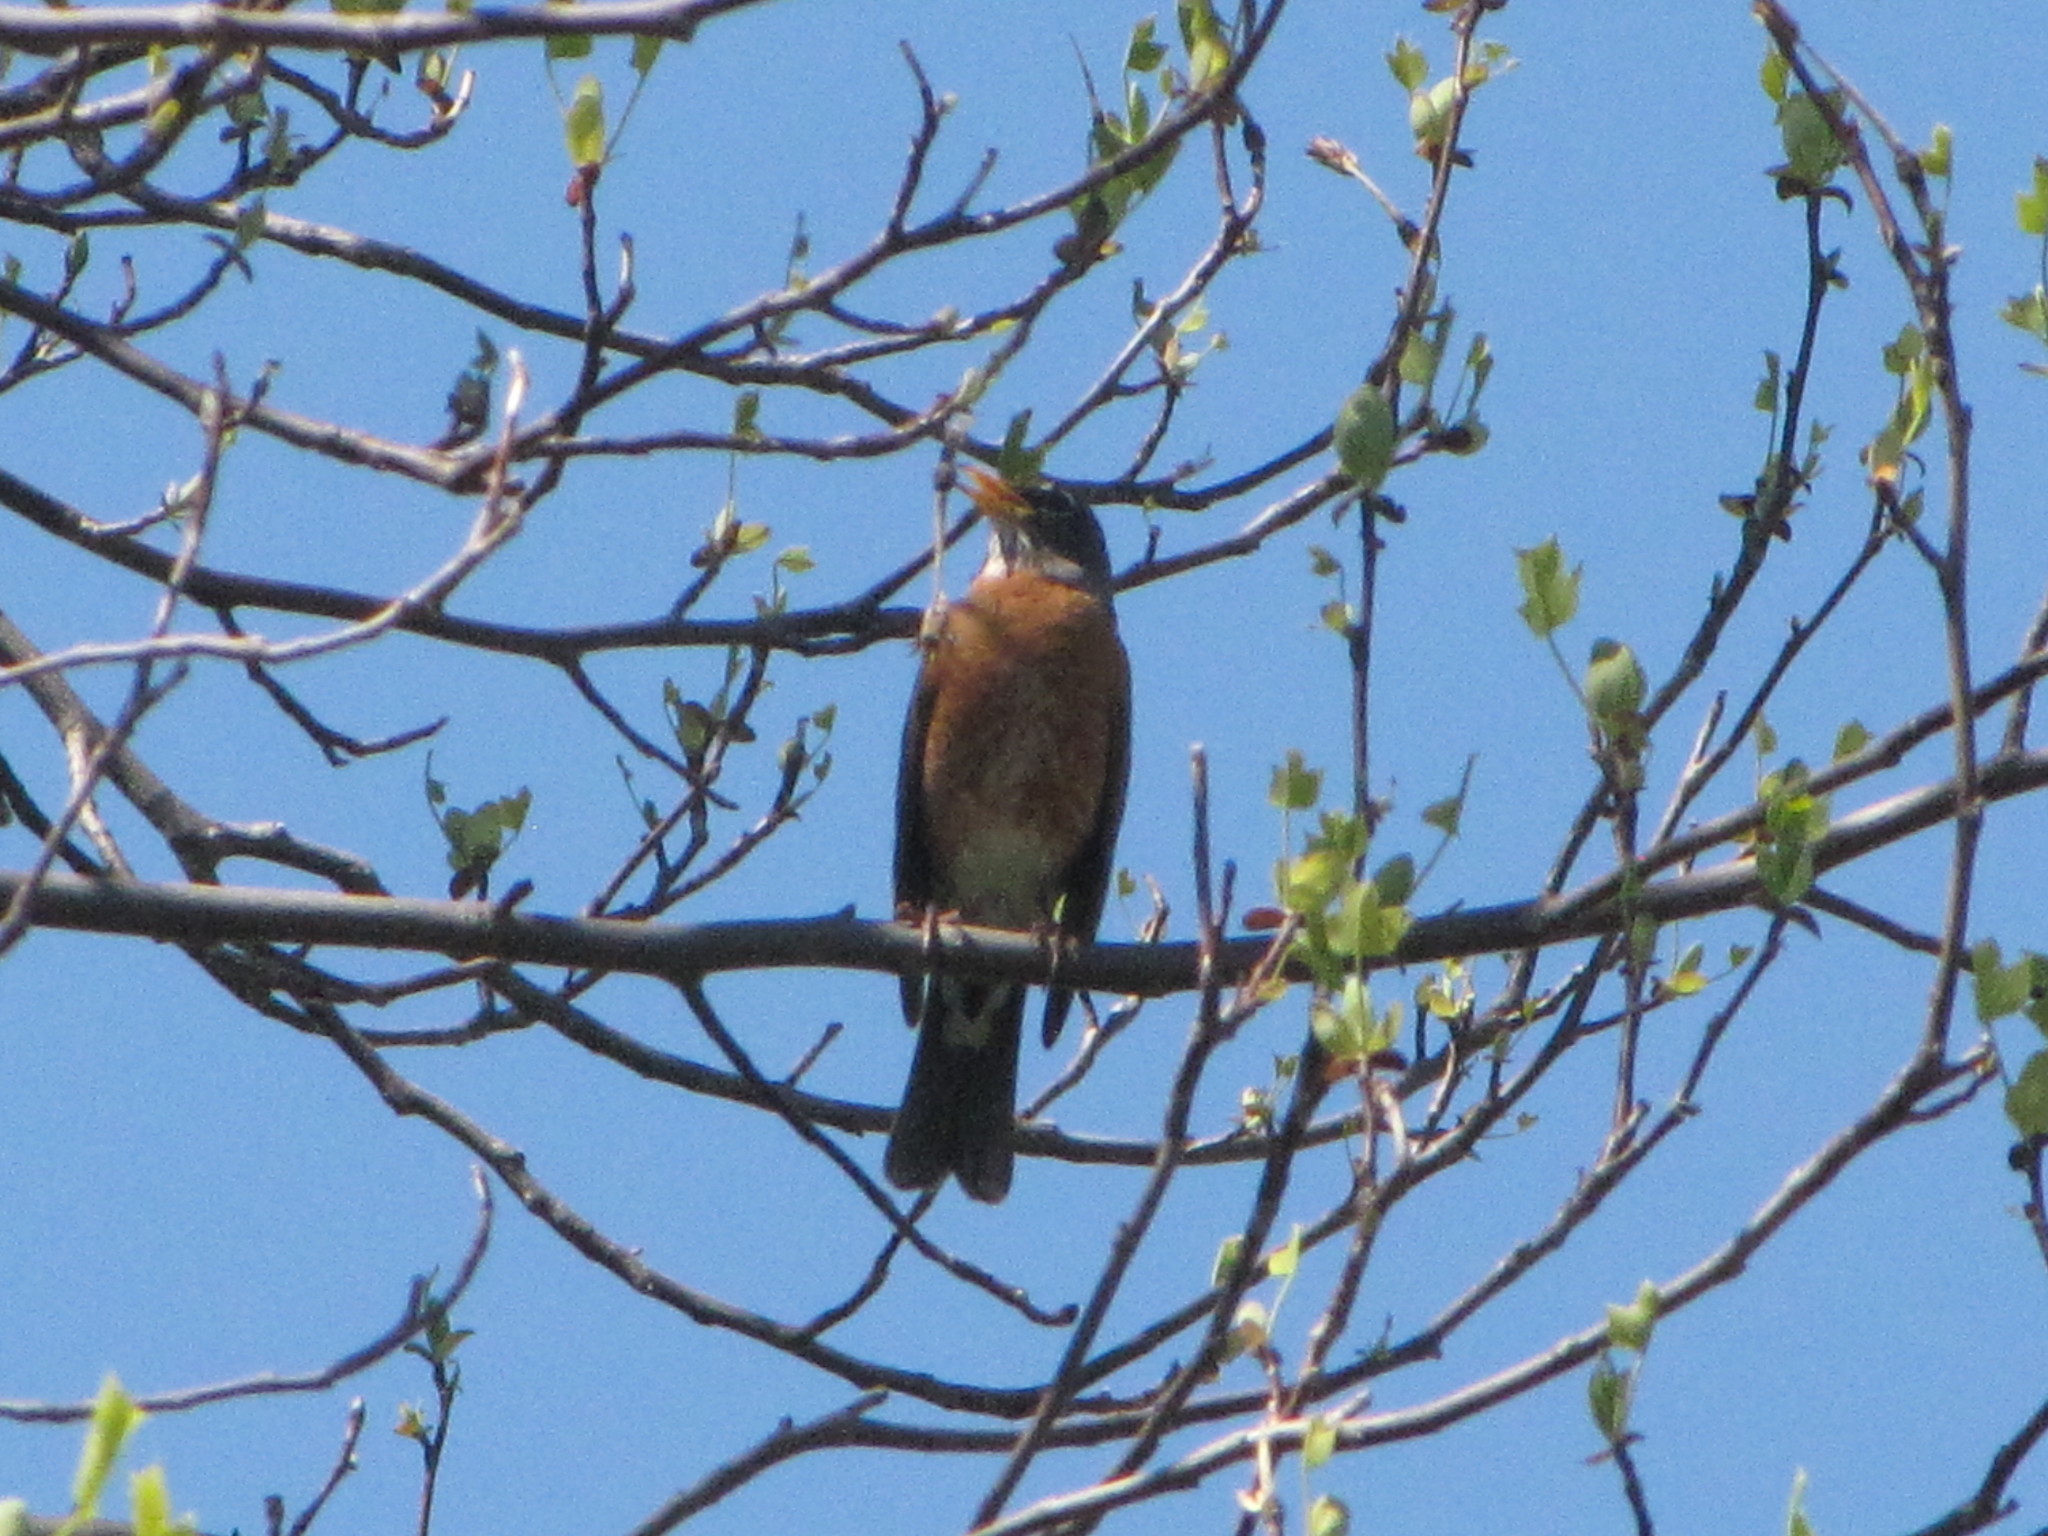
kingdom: Animalia
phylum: Chordata
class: Aves
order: Passeriformes
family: Turdidae
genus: Turdus
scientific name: Turdus migratorius
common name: American robin
